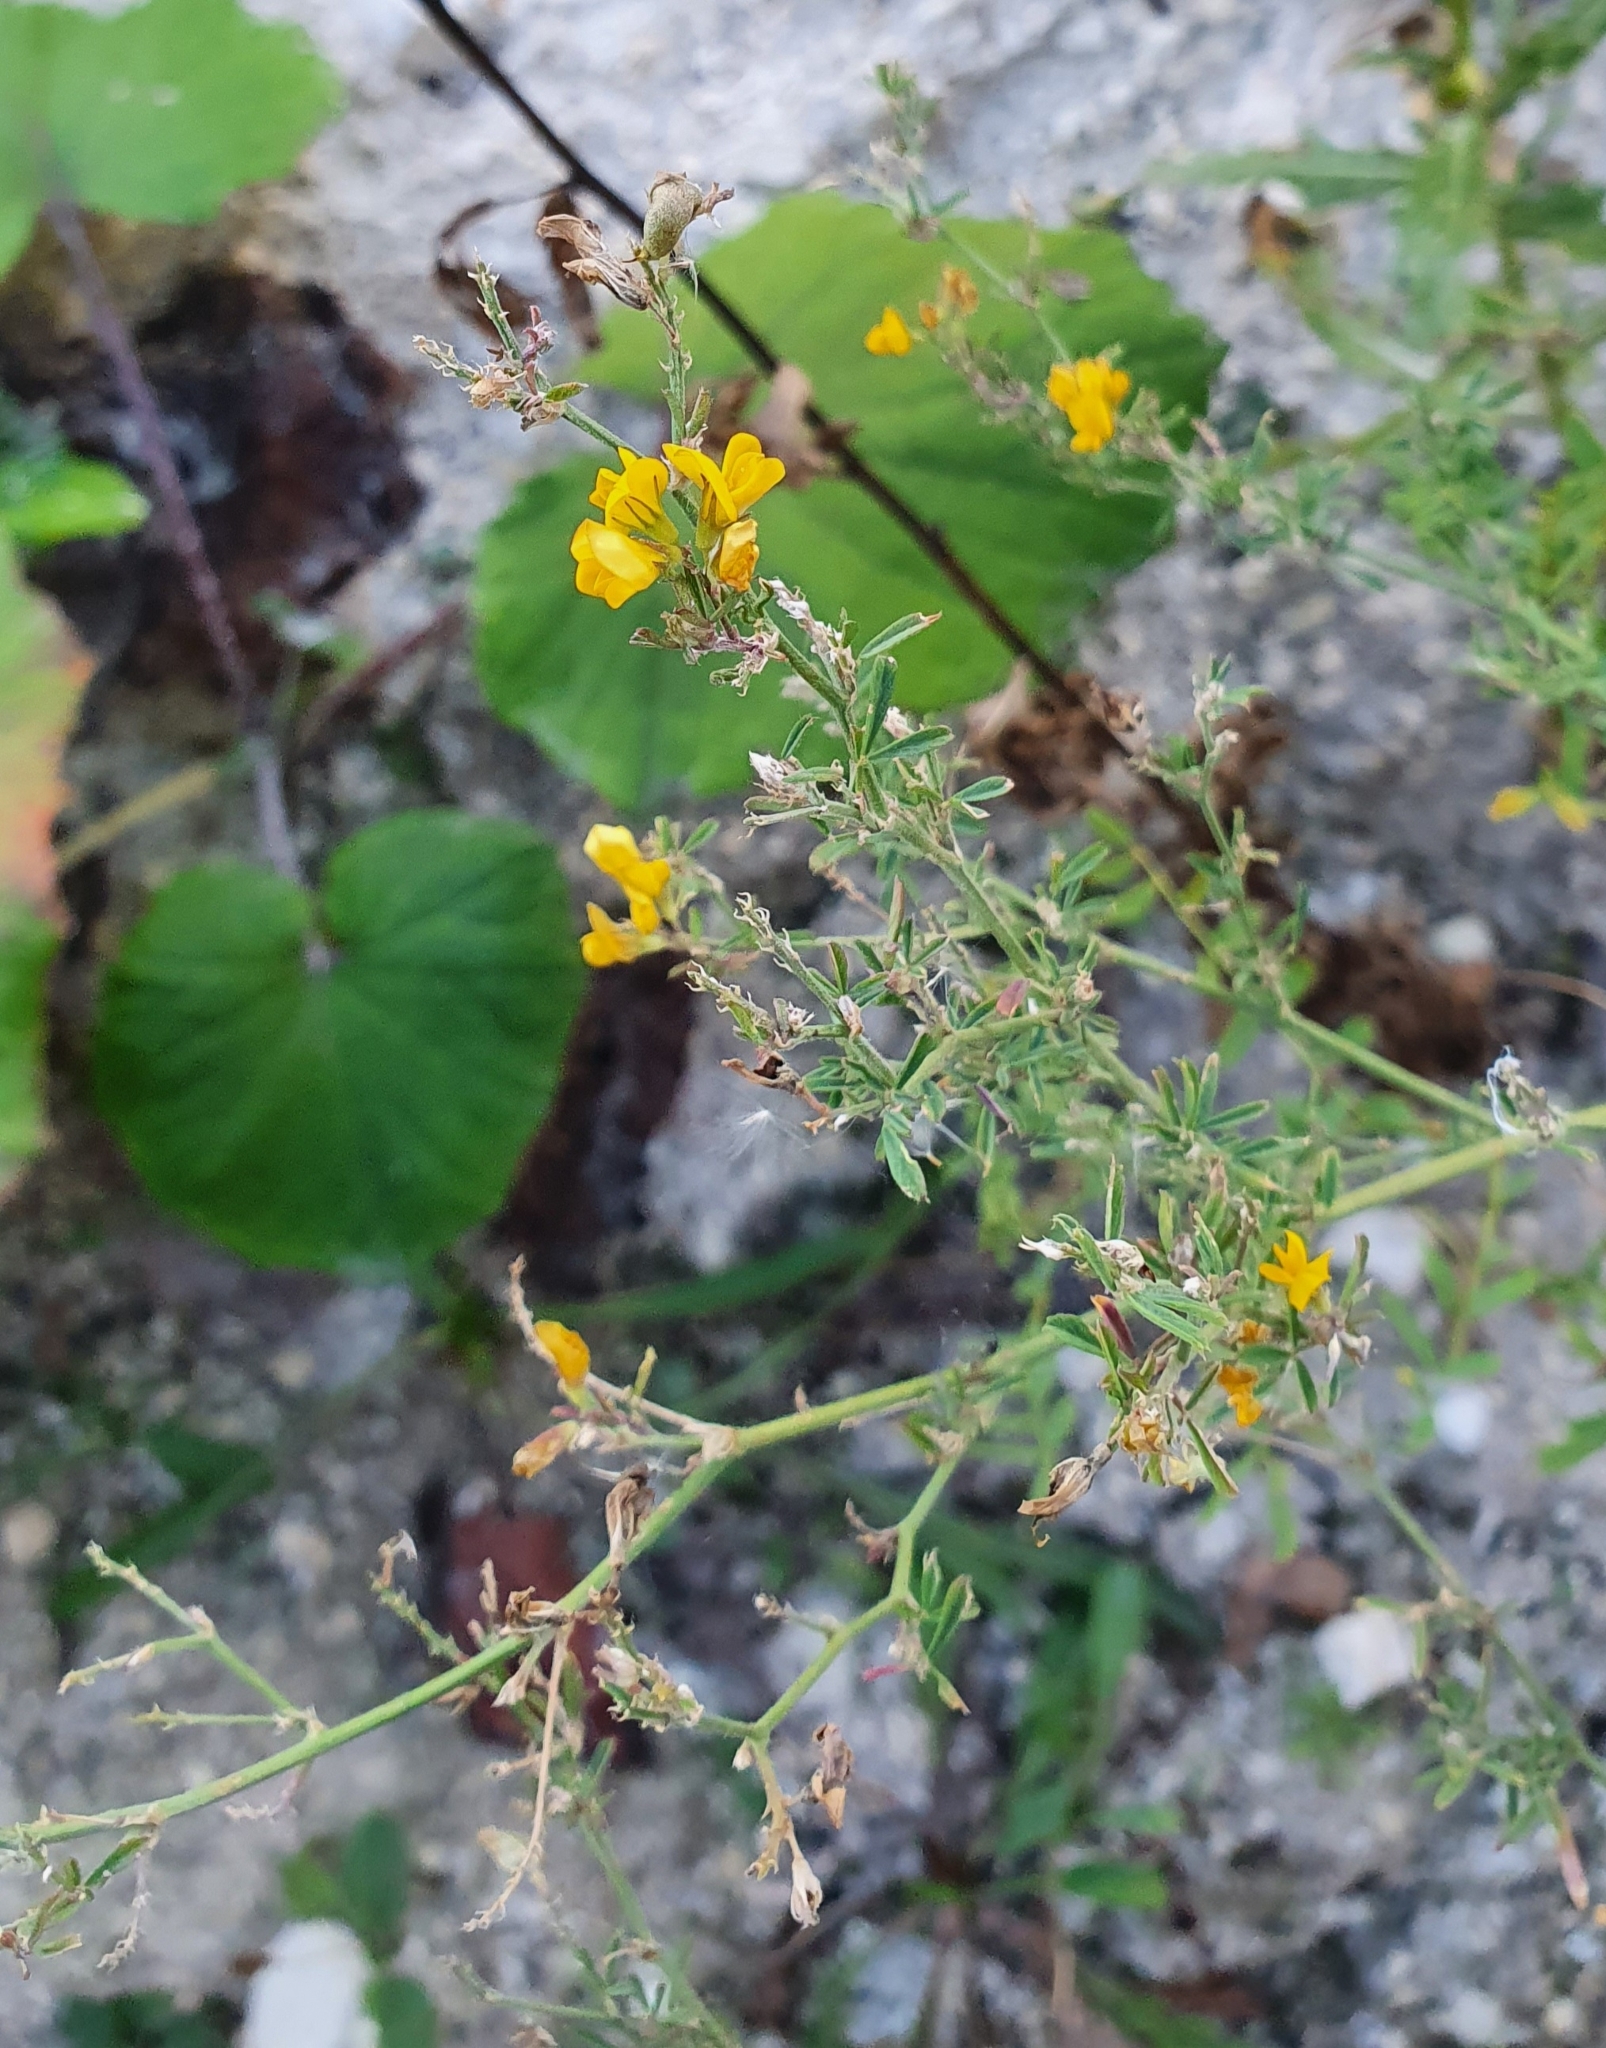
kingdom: Plantae
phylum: Tracheophyta
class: Magnoliopsida
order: Fabales
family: Fabaceae
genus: Medicago
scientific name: Medicago falcata
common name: Sickle medick
